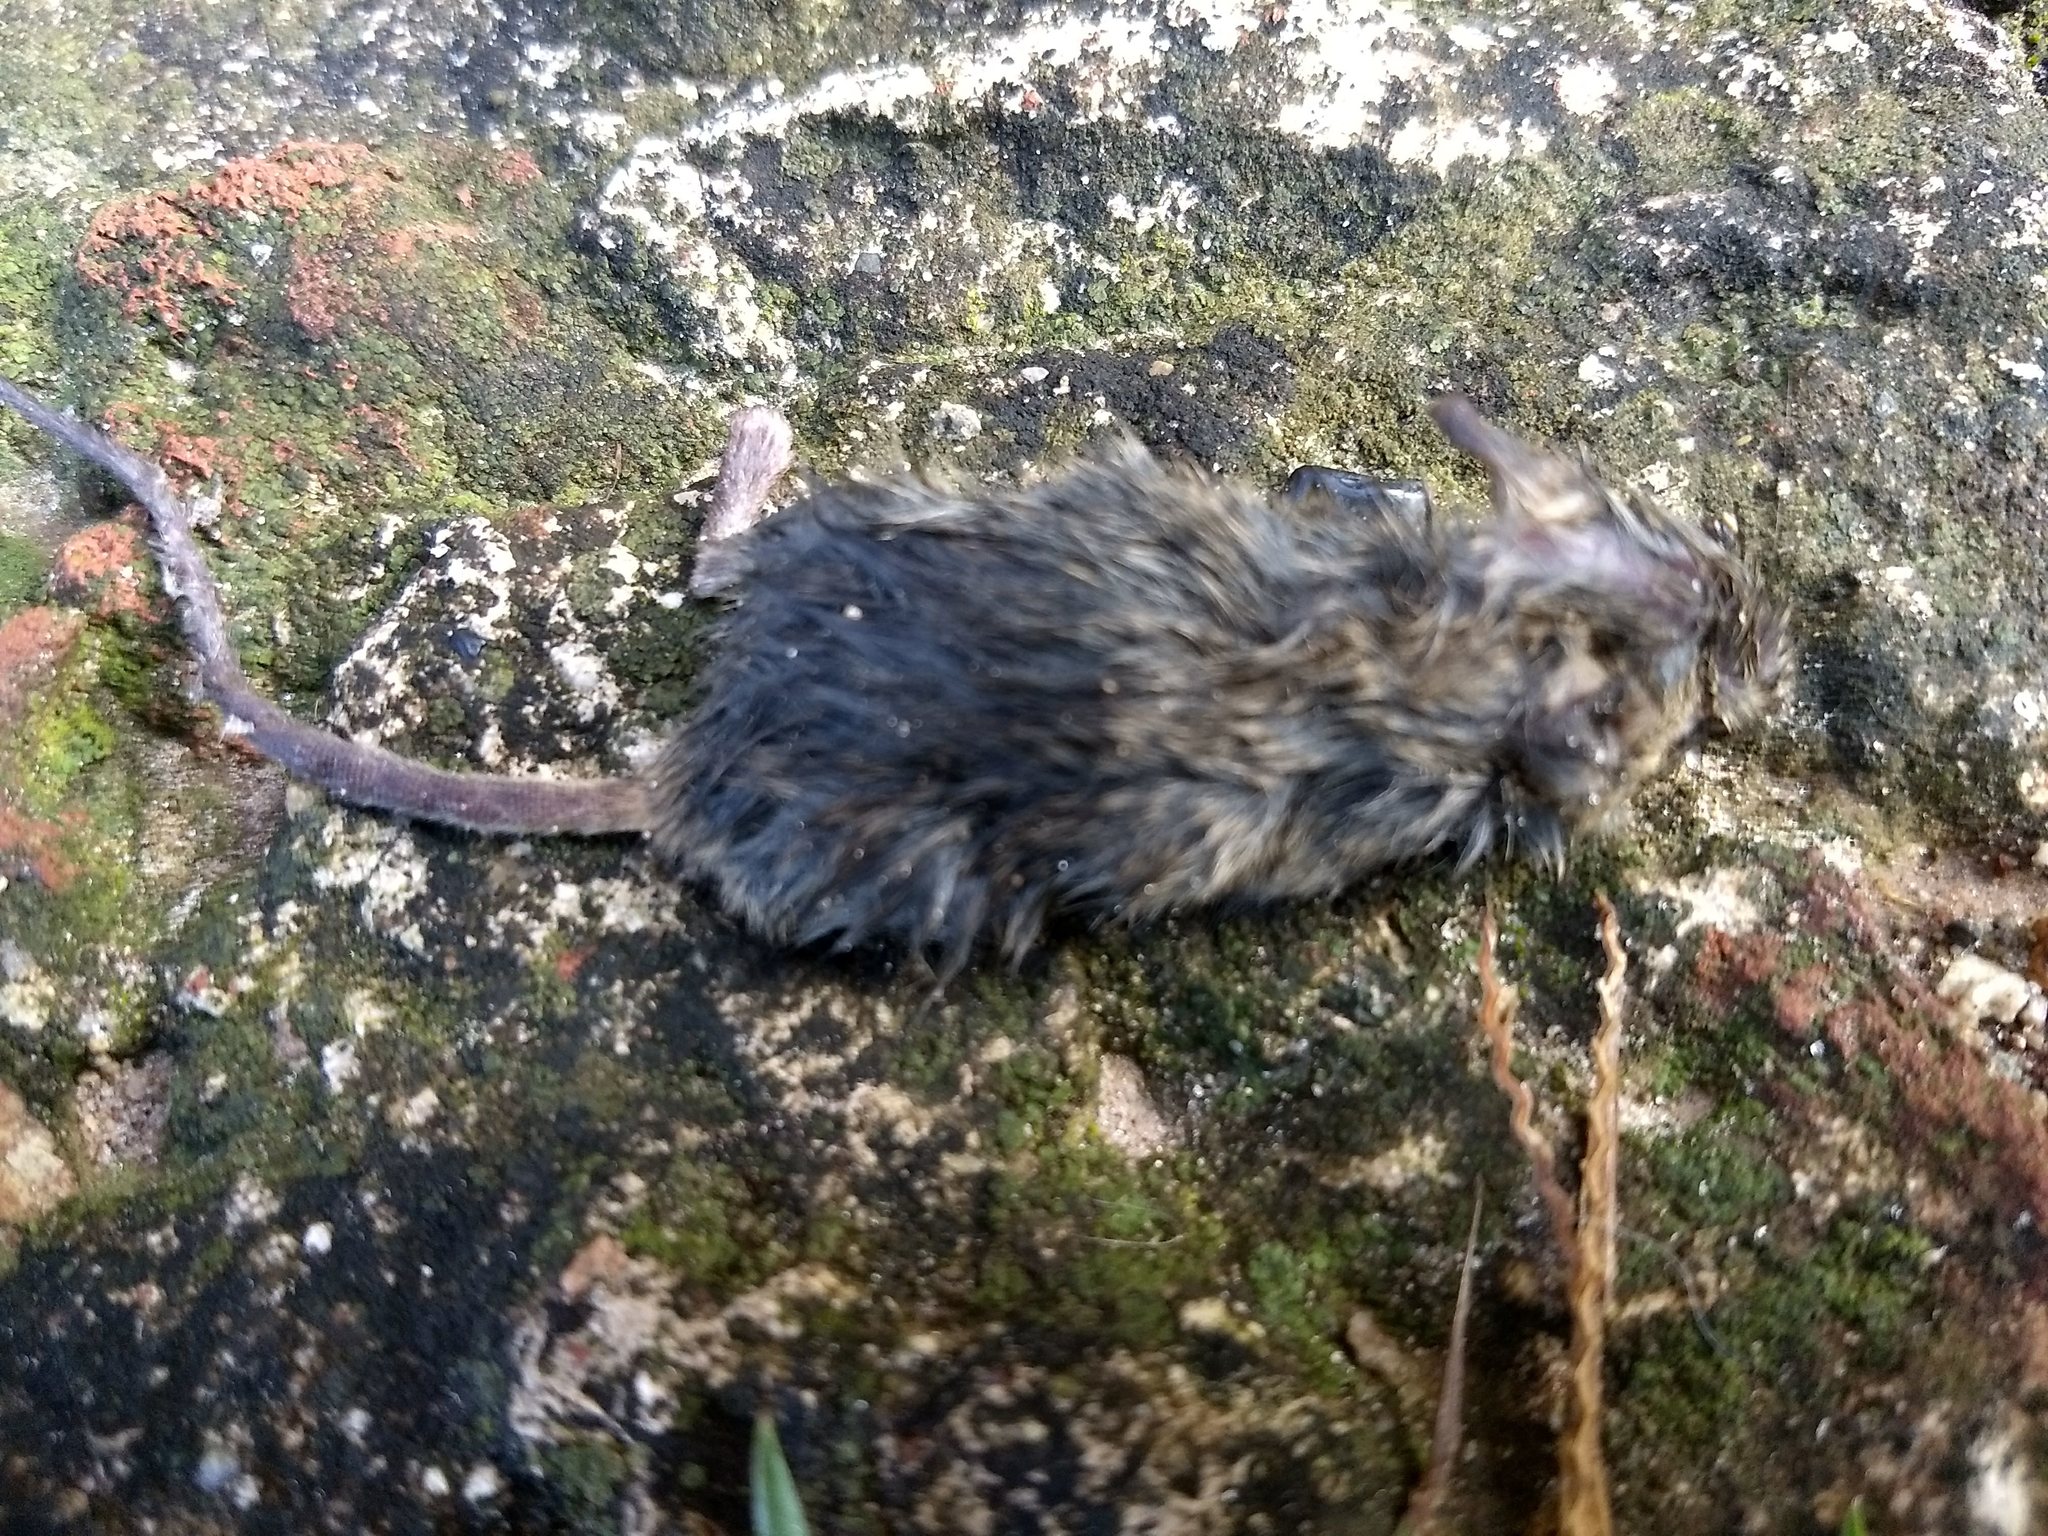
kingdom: Animalia
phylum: Chordata
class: Mammalia
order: Rodentia
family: Muridae
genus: Mus
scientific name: Mus musculus
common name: House mouse
